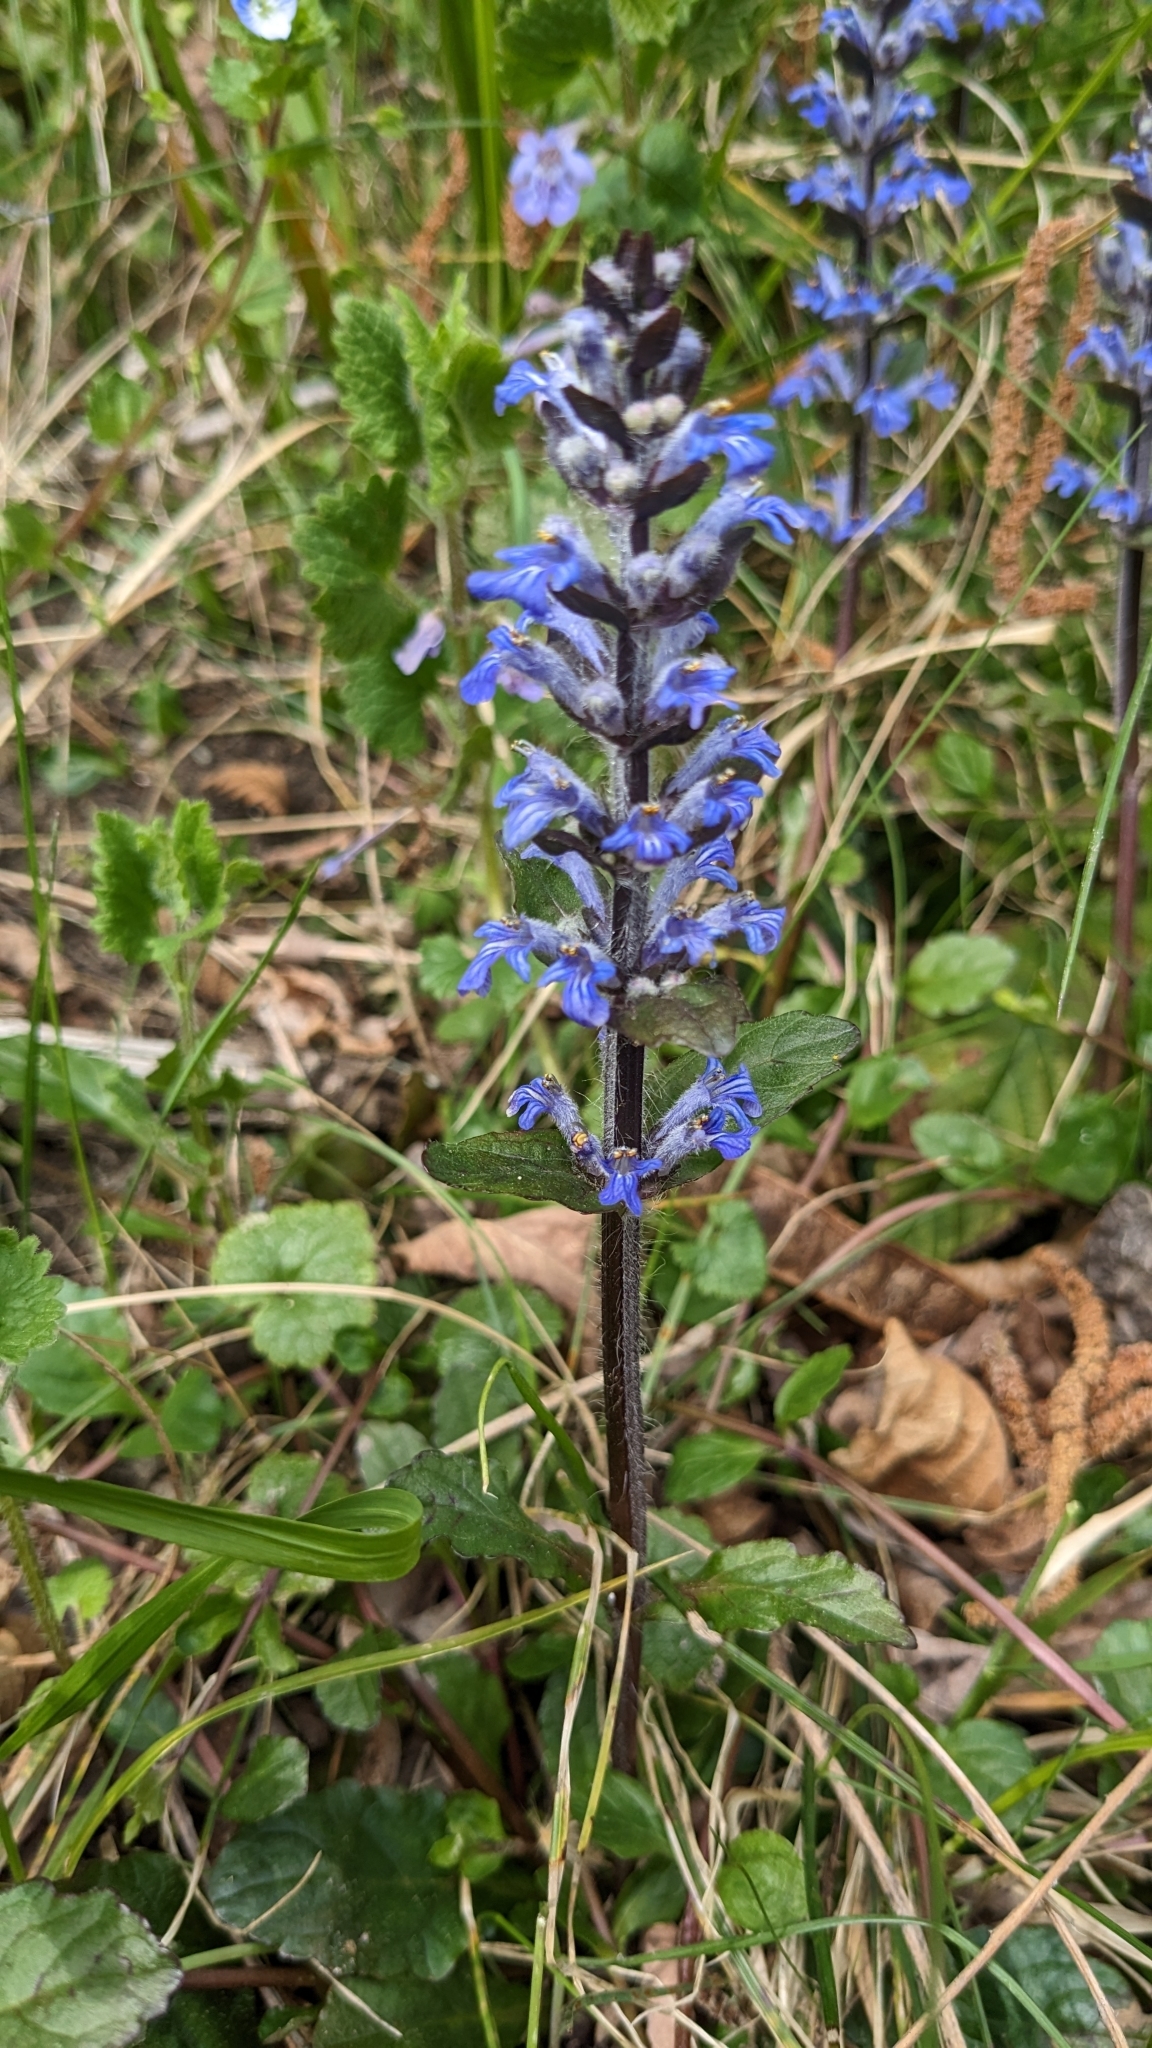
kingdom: Plantae
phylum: Tracheophyta
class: Magnoliopsida
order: Lamiales
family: Lamiaceae
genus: Ajuga
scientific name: Ajuga reptans
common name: Bugle
